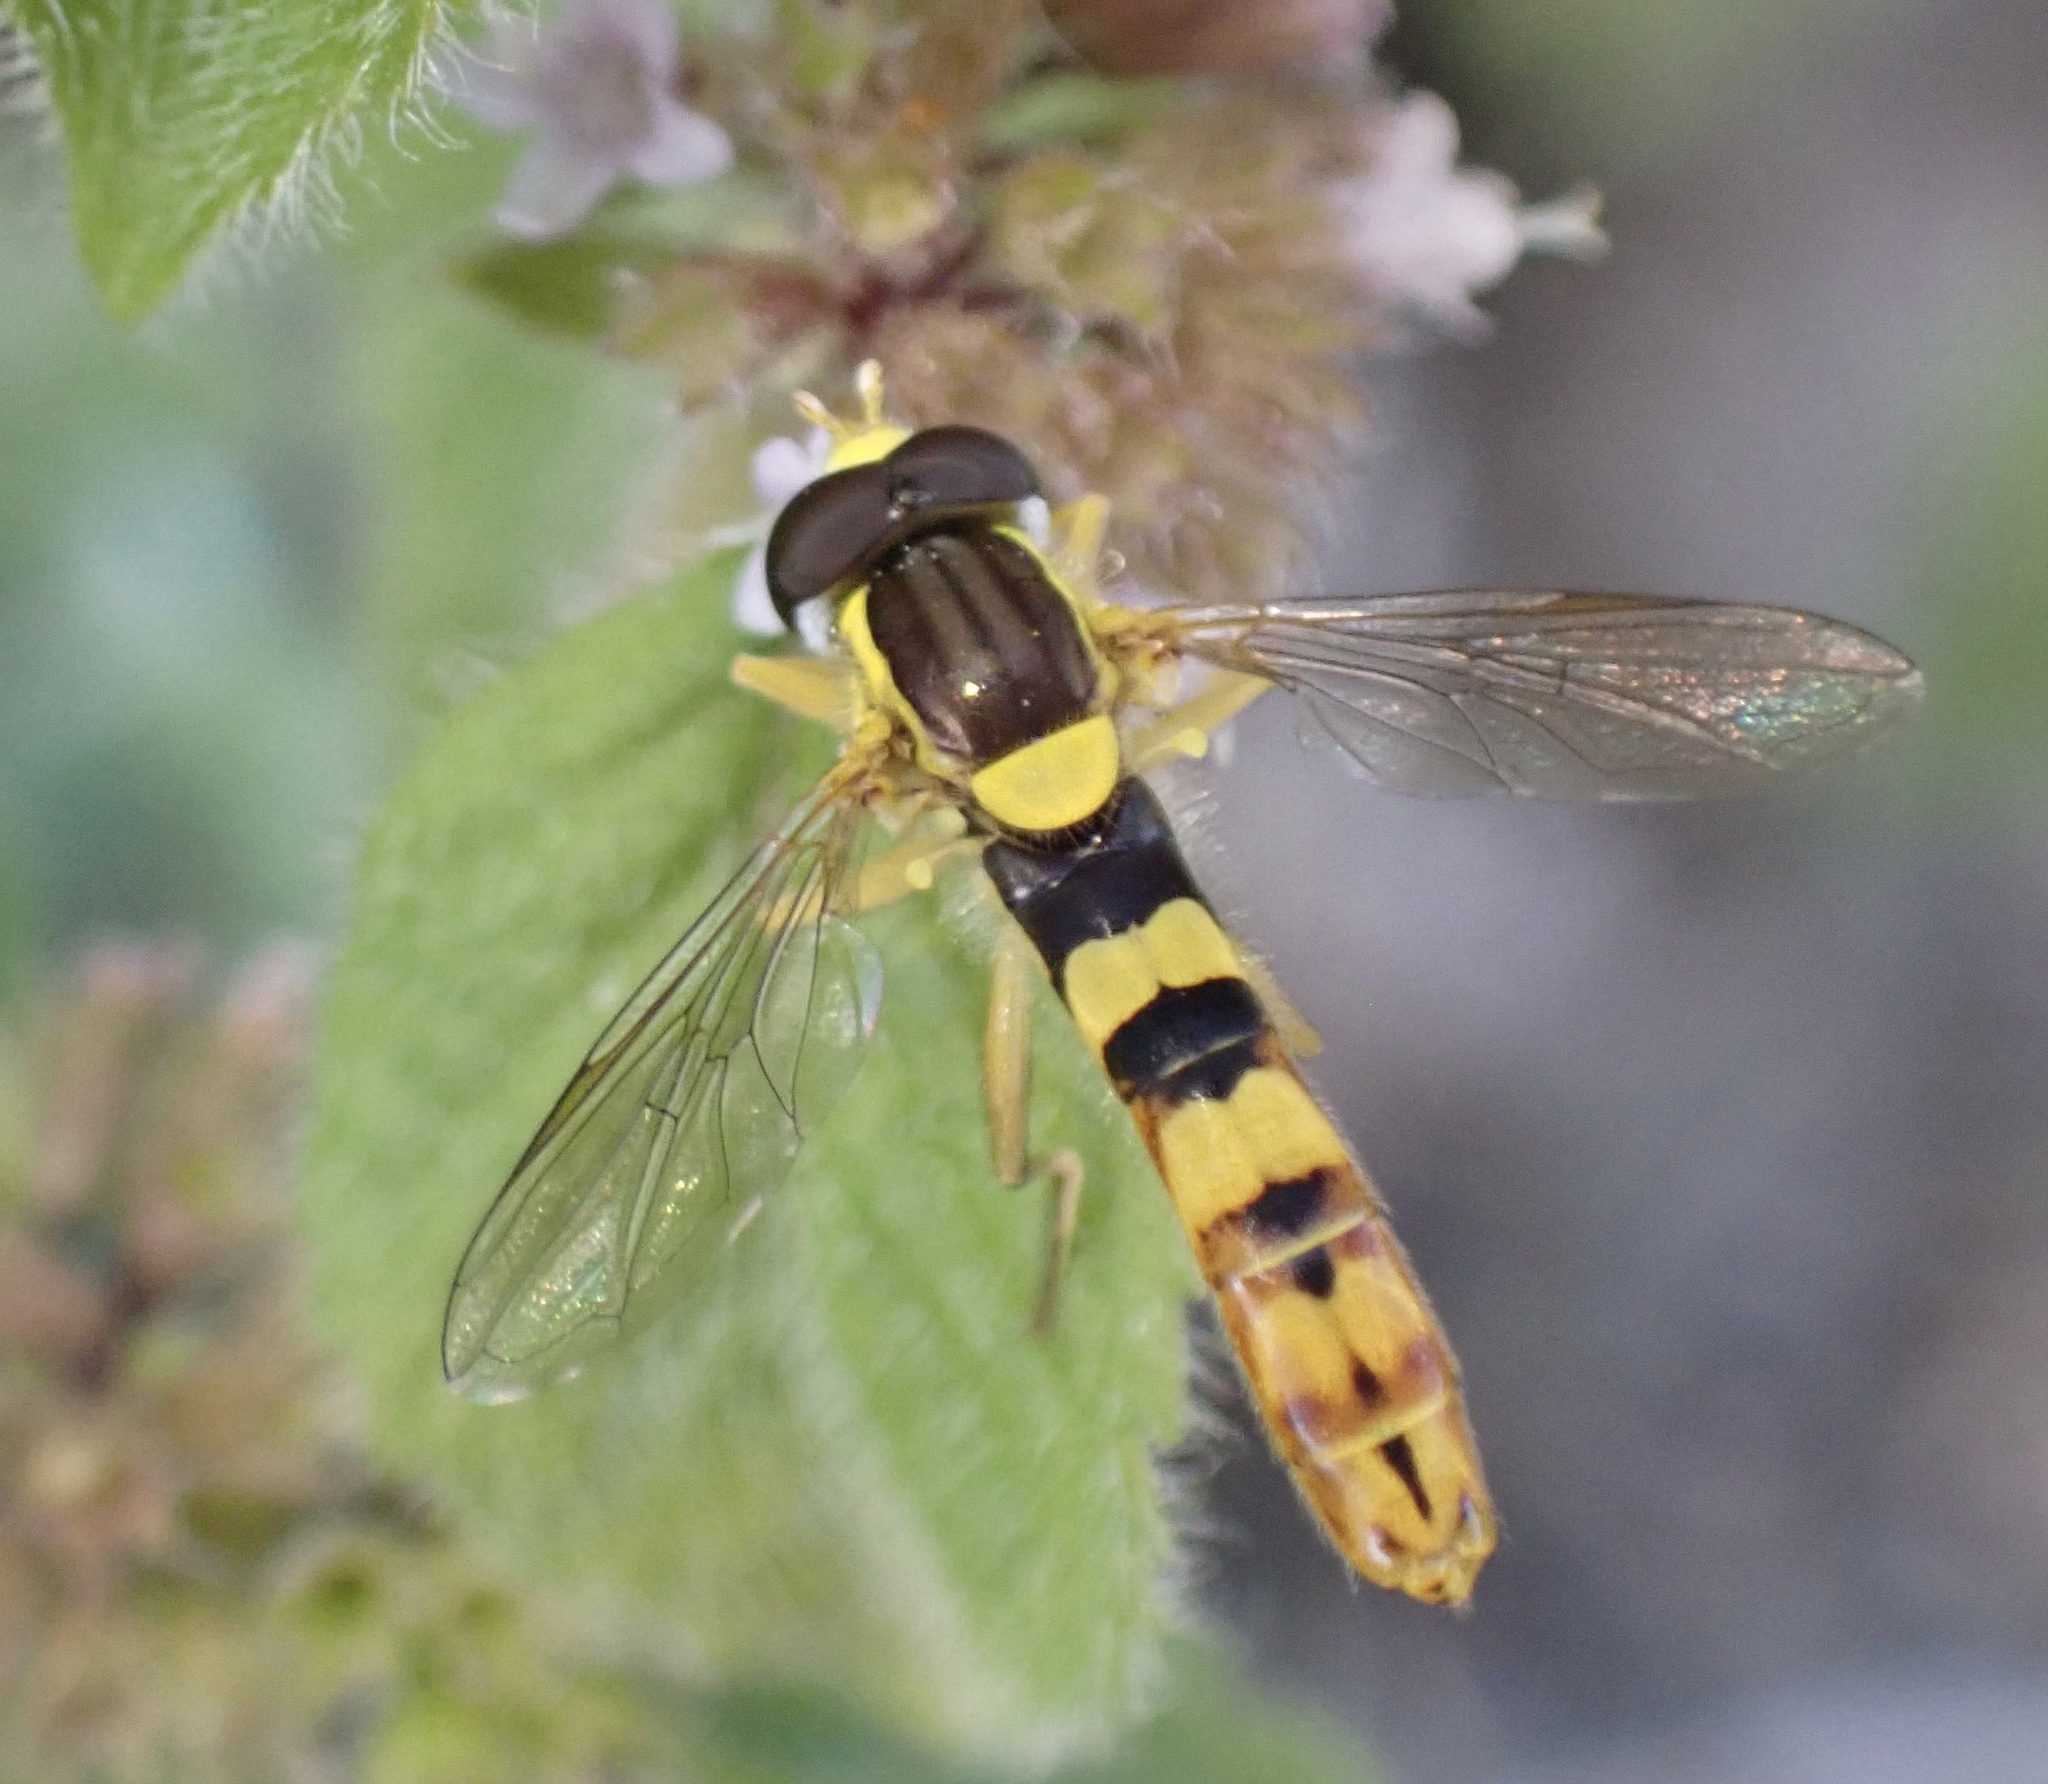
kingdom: Animalia
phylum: Arthropoda
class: Insecta
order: Diptera
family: Syrphidae
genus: Sphaerophoria
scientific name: Sphaerophoria scripta
